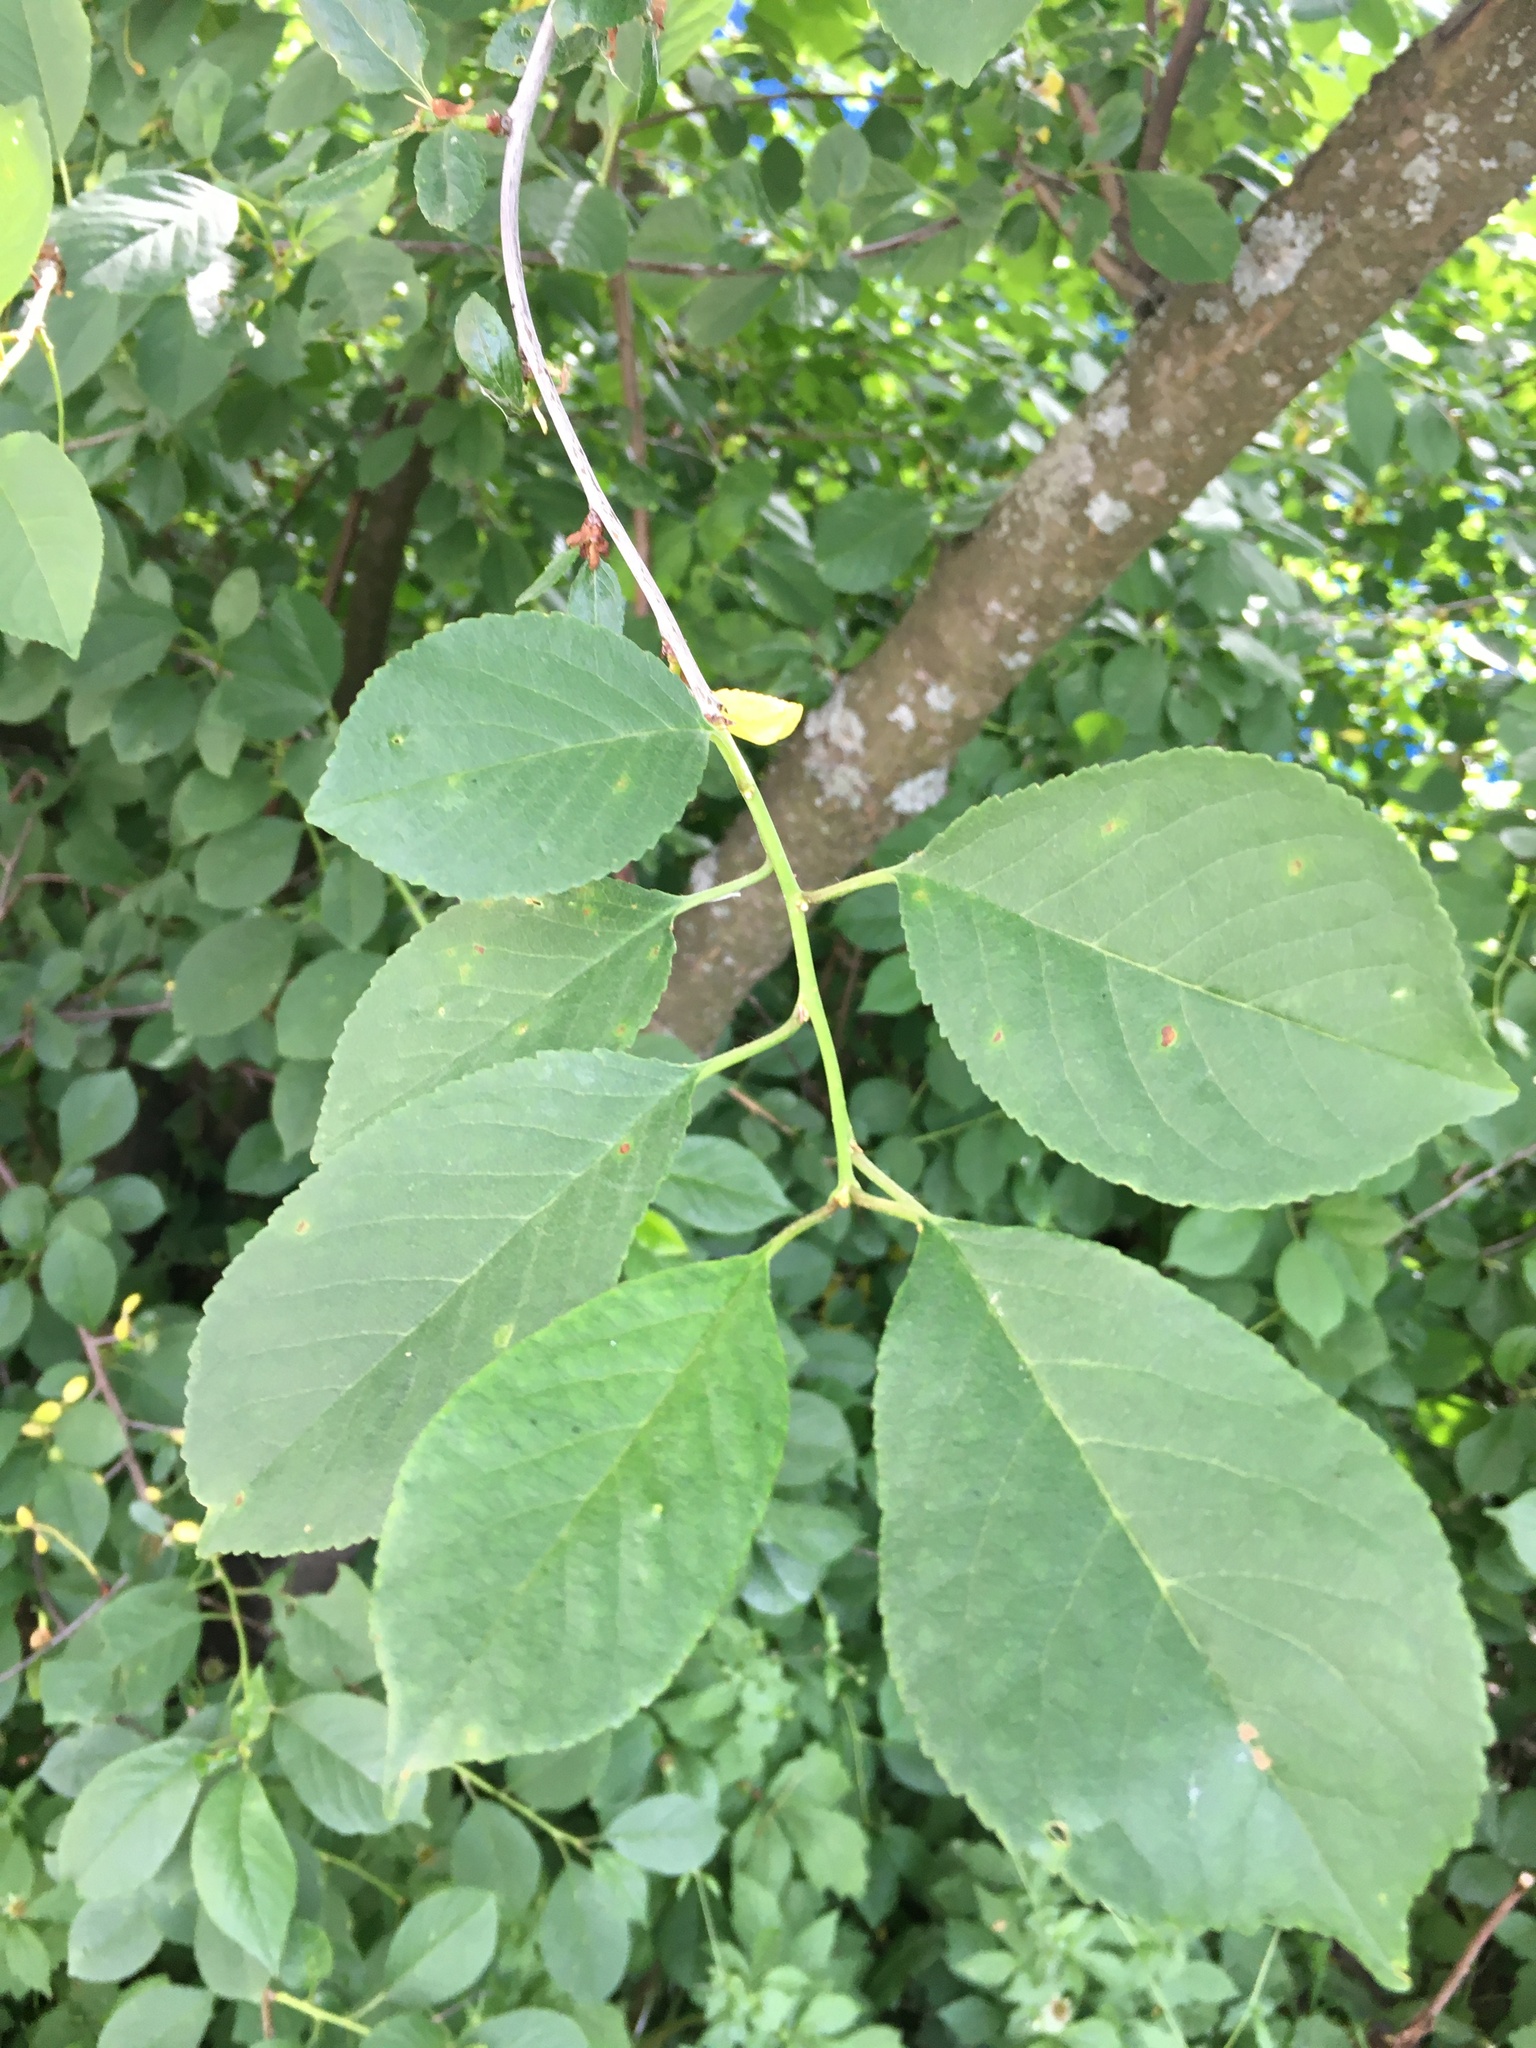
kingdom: Plantae
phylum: Tracheophyta
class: Magnoliopsida
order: Rosales
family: Rosaceae
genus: Prunus
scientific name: Prunus cerasus
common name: Morello cherry
